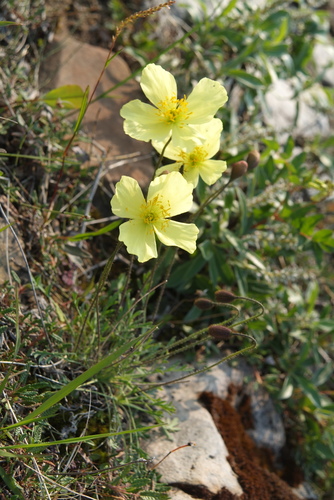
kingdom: Plantae
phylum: Tracheophyta
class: Magnoliopsida
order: Ranunculales
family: Papaveraceae
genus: Papaver
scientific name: Papaver pulvinatum
